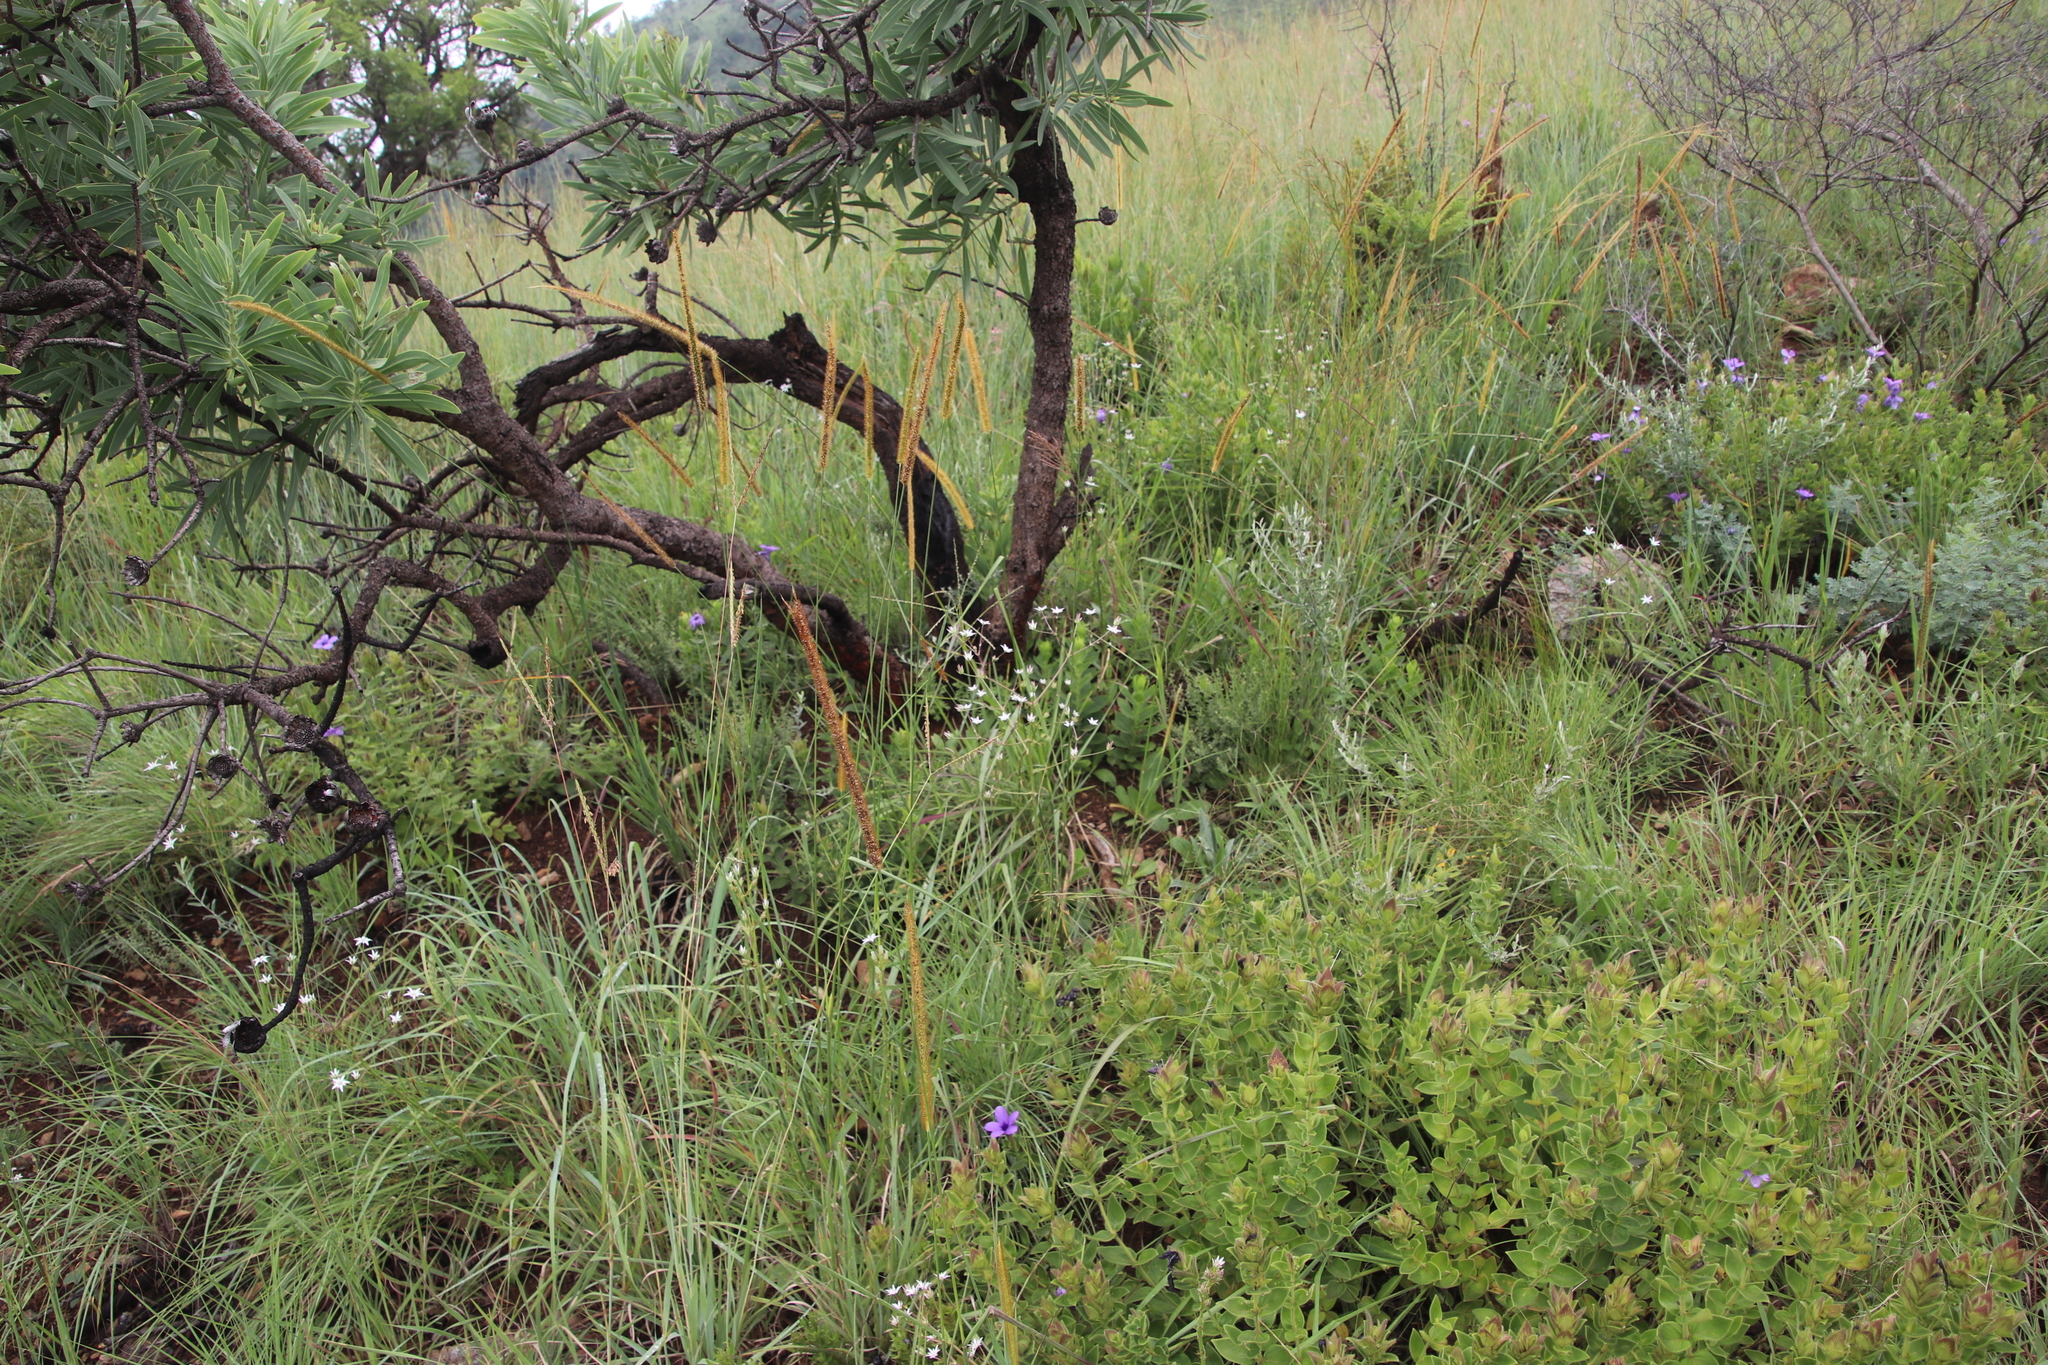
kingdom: Plantae
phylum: Tracheophyta
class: Magnoliopsida
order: Apiales
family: Apiaceae
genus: Alepidea
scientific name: Alepidea peduncularis
